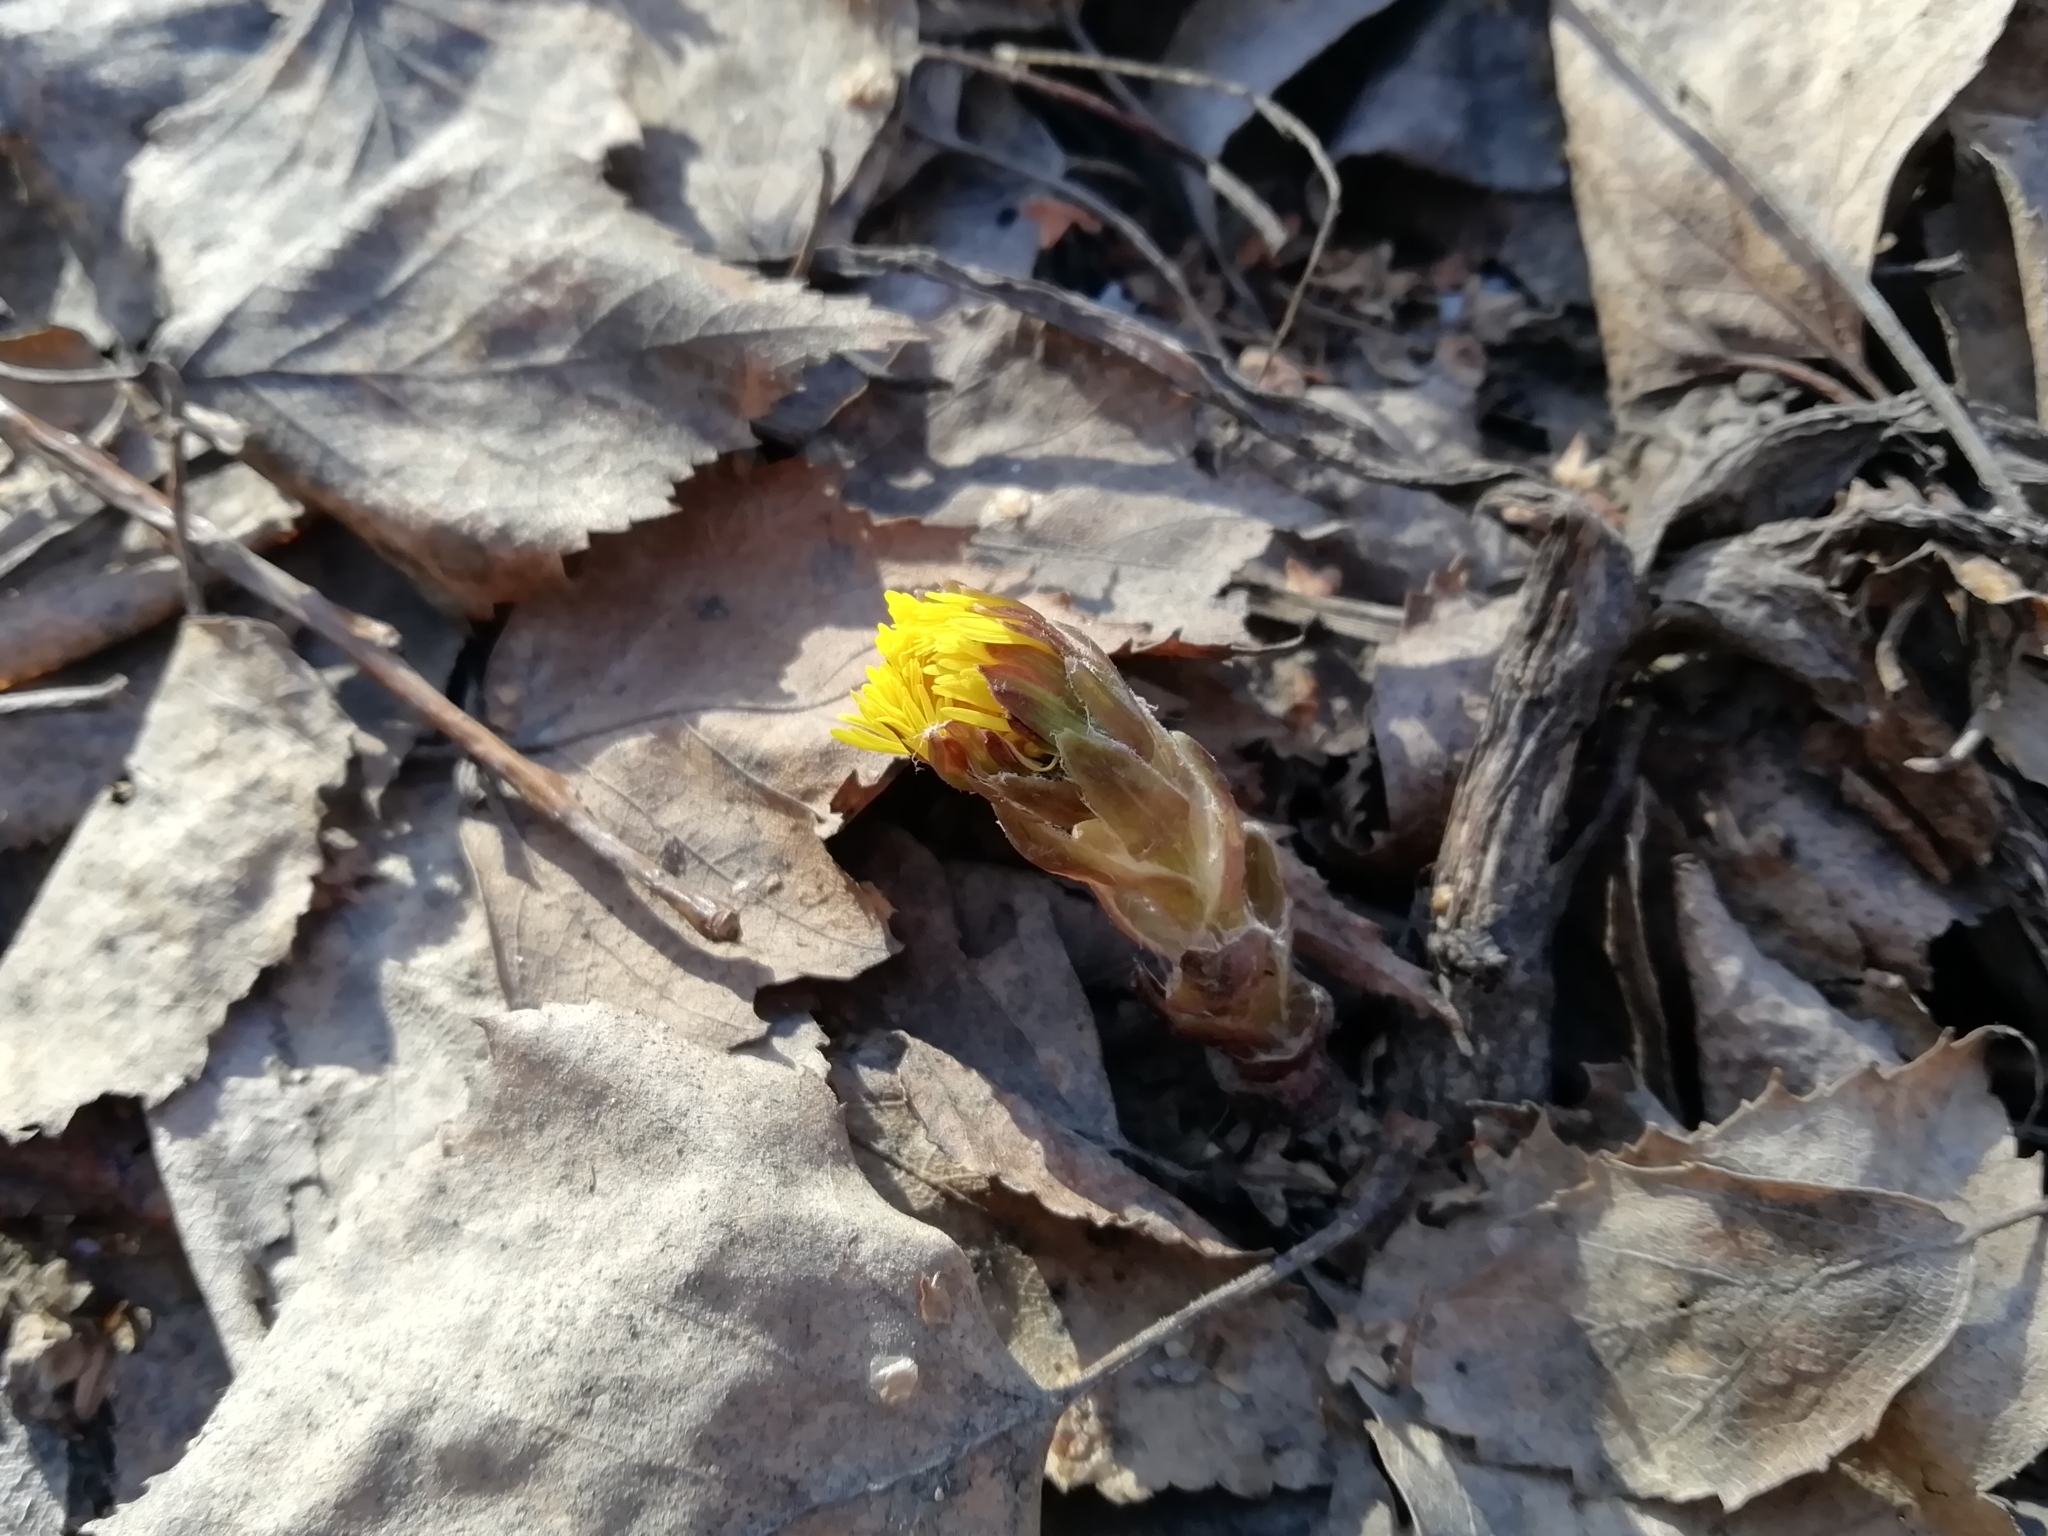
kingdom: Plantae
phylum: Tracheophyta
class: Magnoliopsida
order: Asterales
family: Asteraceae
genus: Tussilago
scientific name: Tussilago farfara
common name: Coltsfoot
